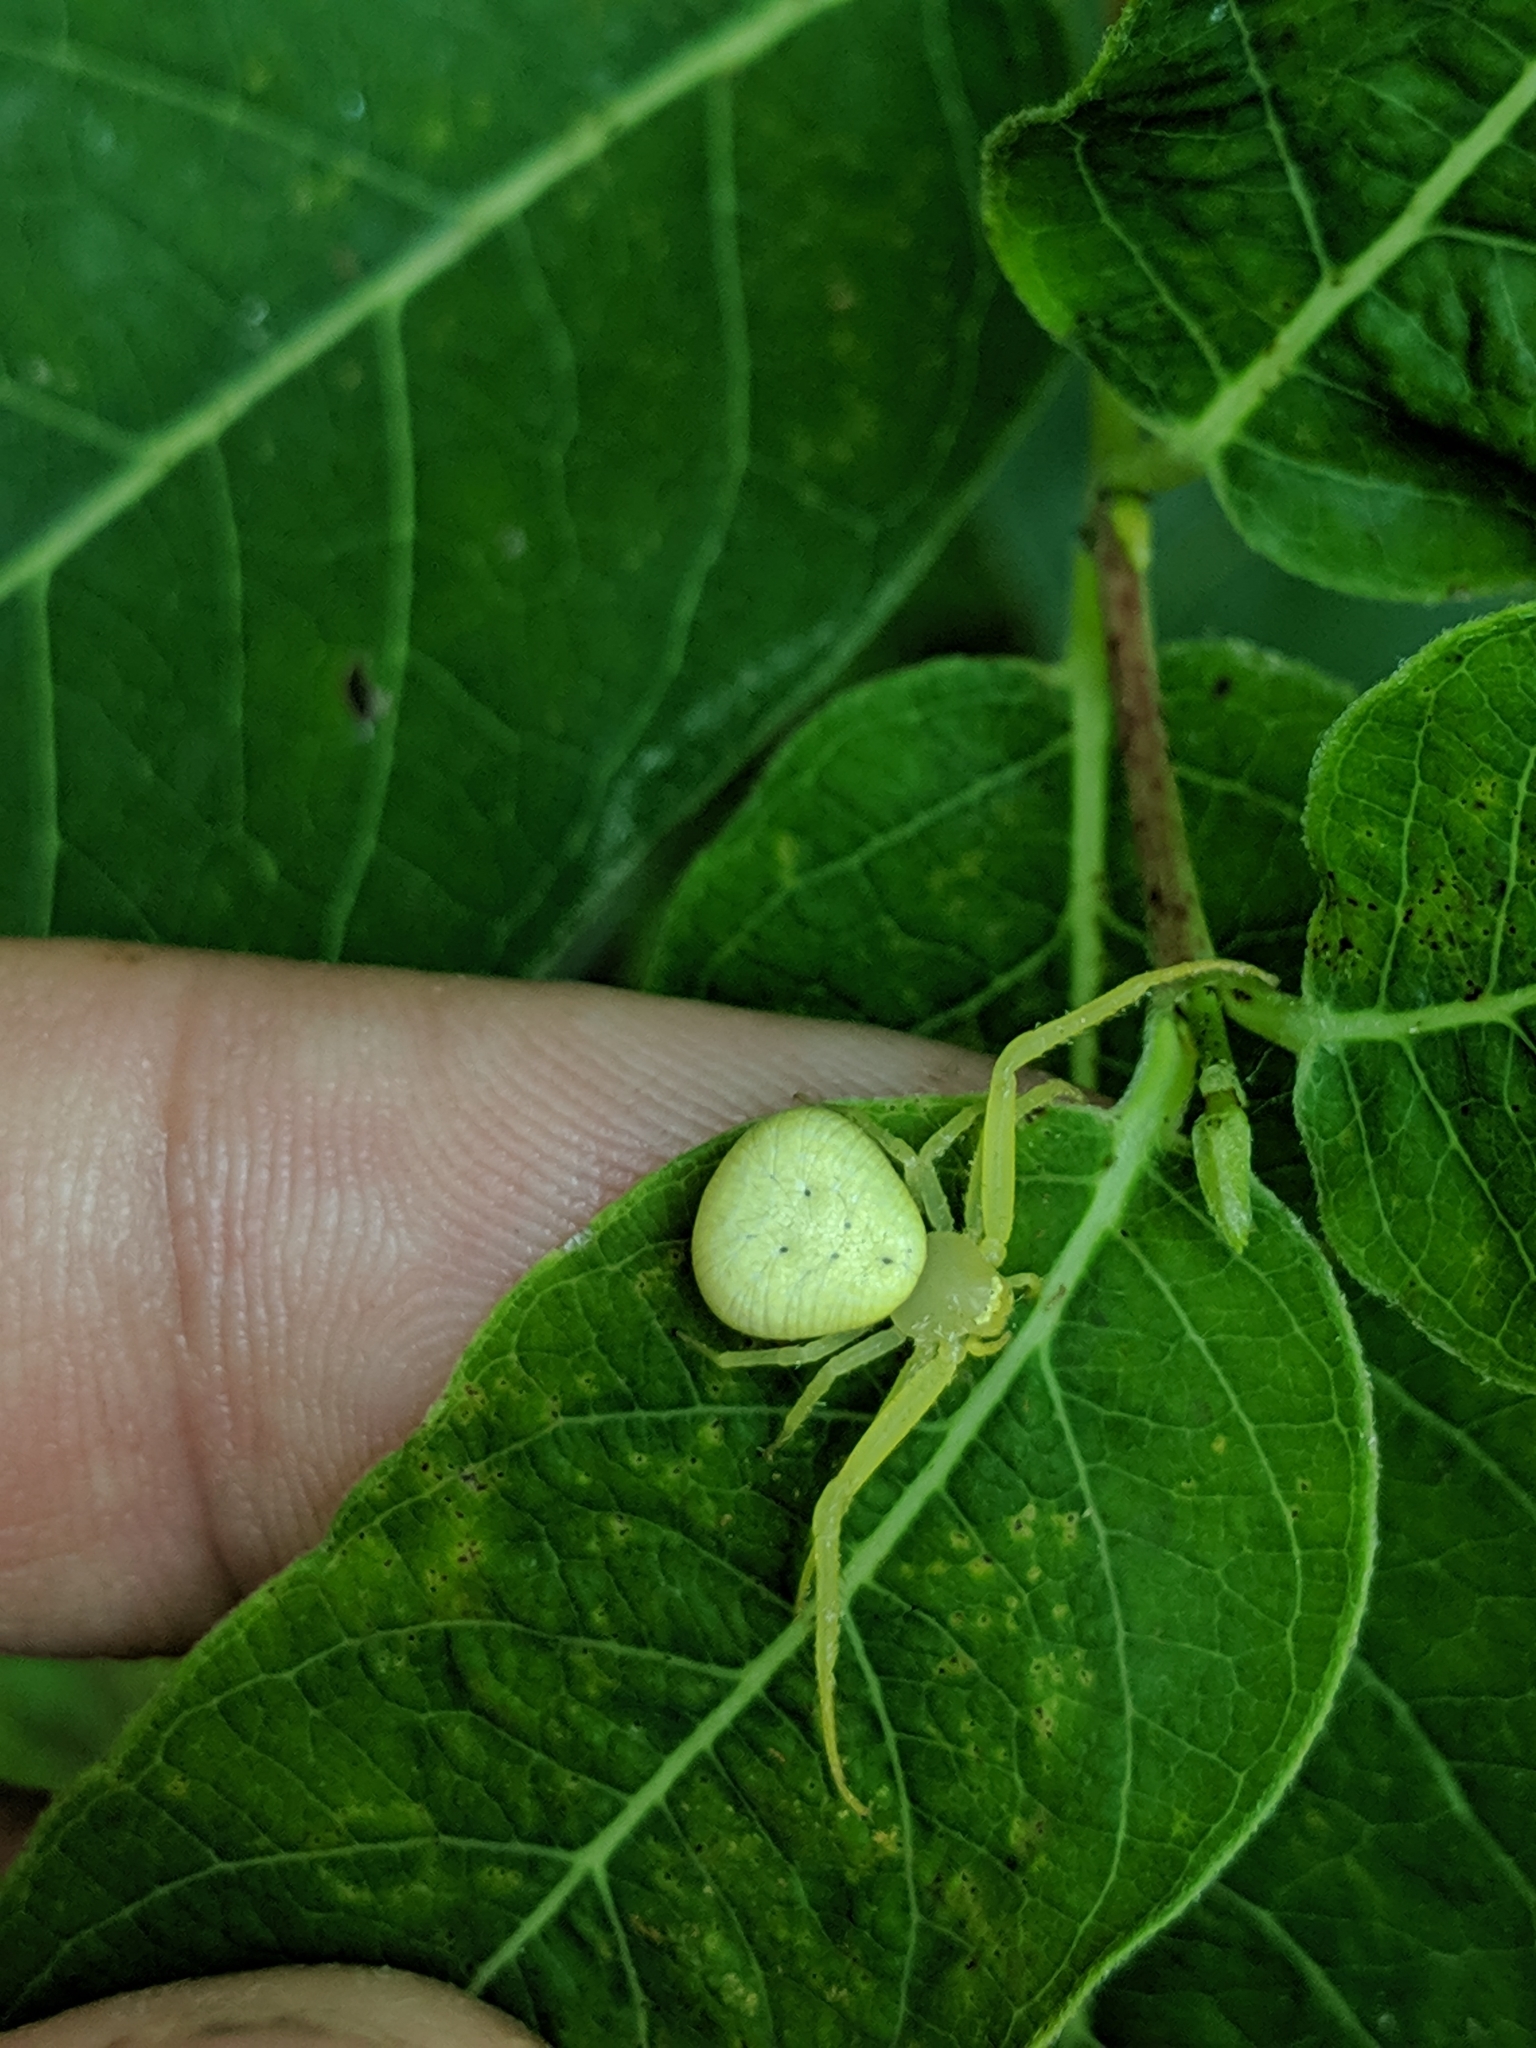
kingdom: Animalia
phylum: Arthropoda
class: Arachnida
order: Araneae
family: Thomisidae
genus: Misumessus
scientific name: Misumessus oblongus
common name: American green crab spider
